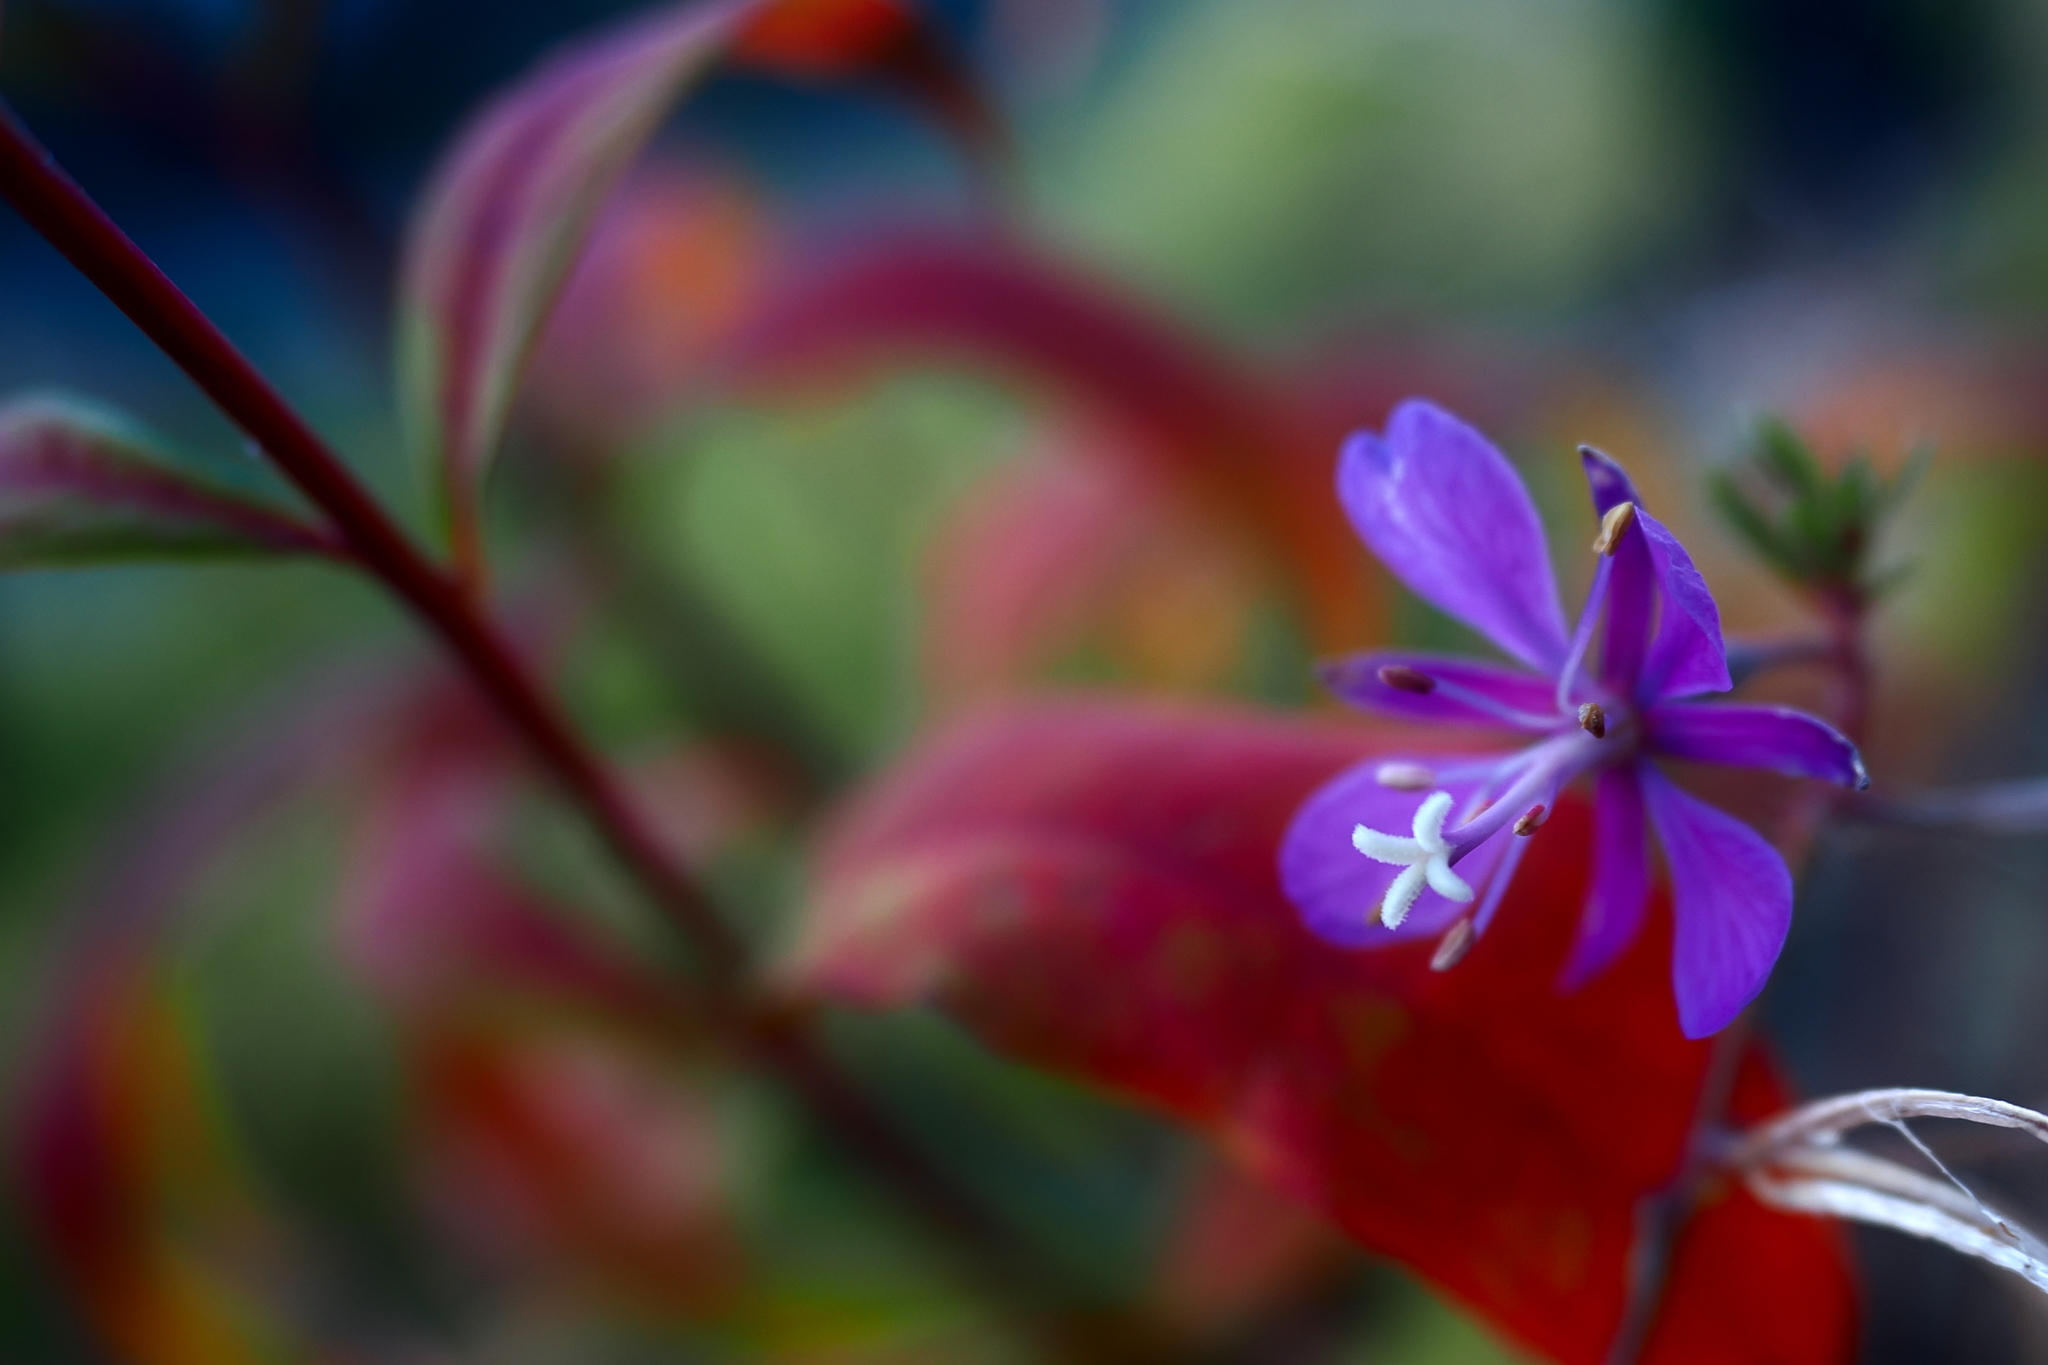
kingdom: Plantae
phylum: Tracheophyta
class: Magnoliopsida
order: Myrtales
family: Onagraceae
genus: Chamaenerion
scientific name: Chamaenerion angustifolium
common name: Fireweed
